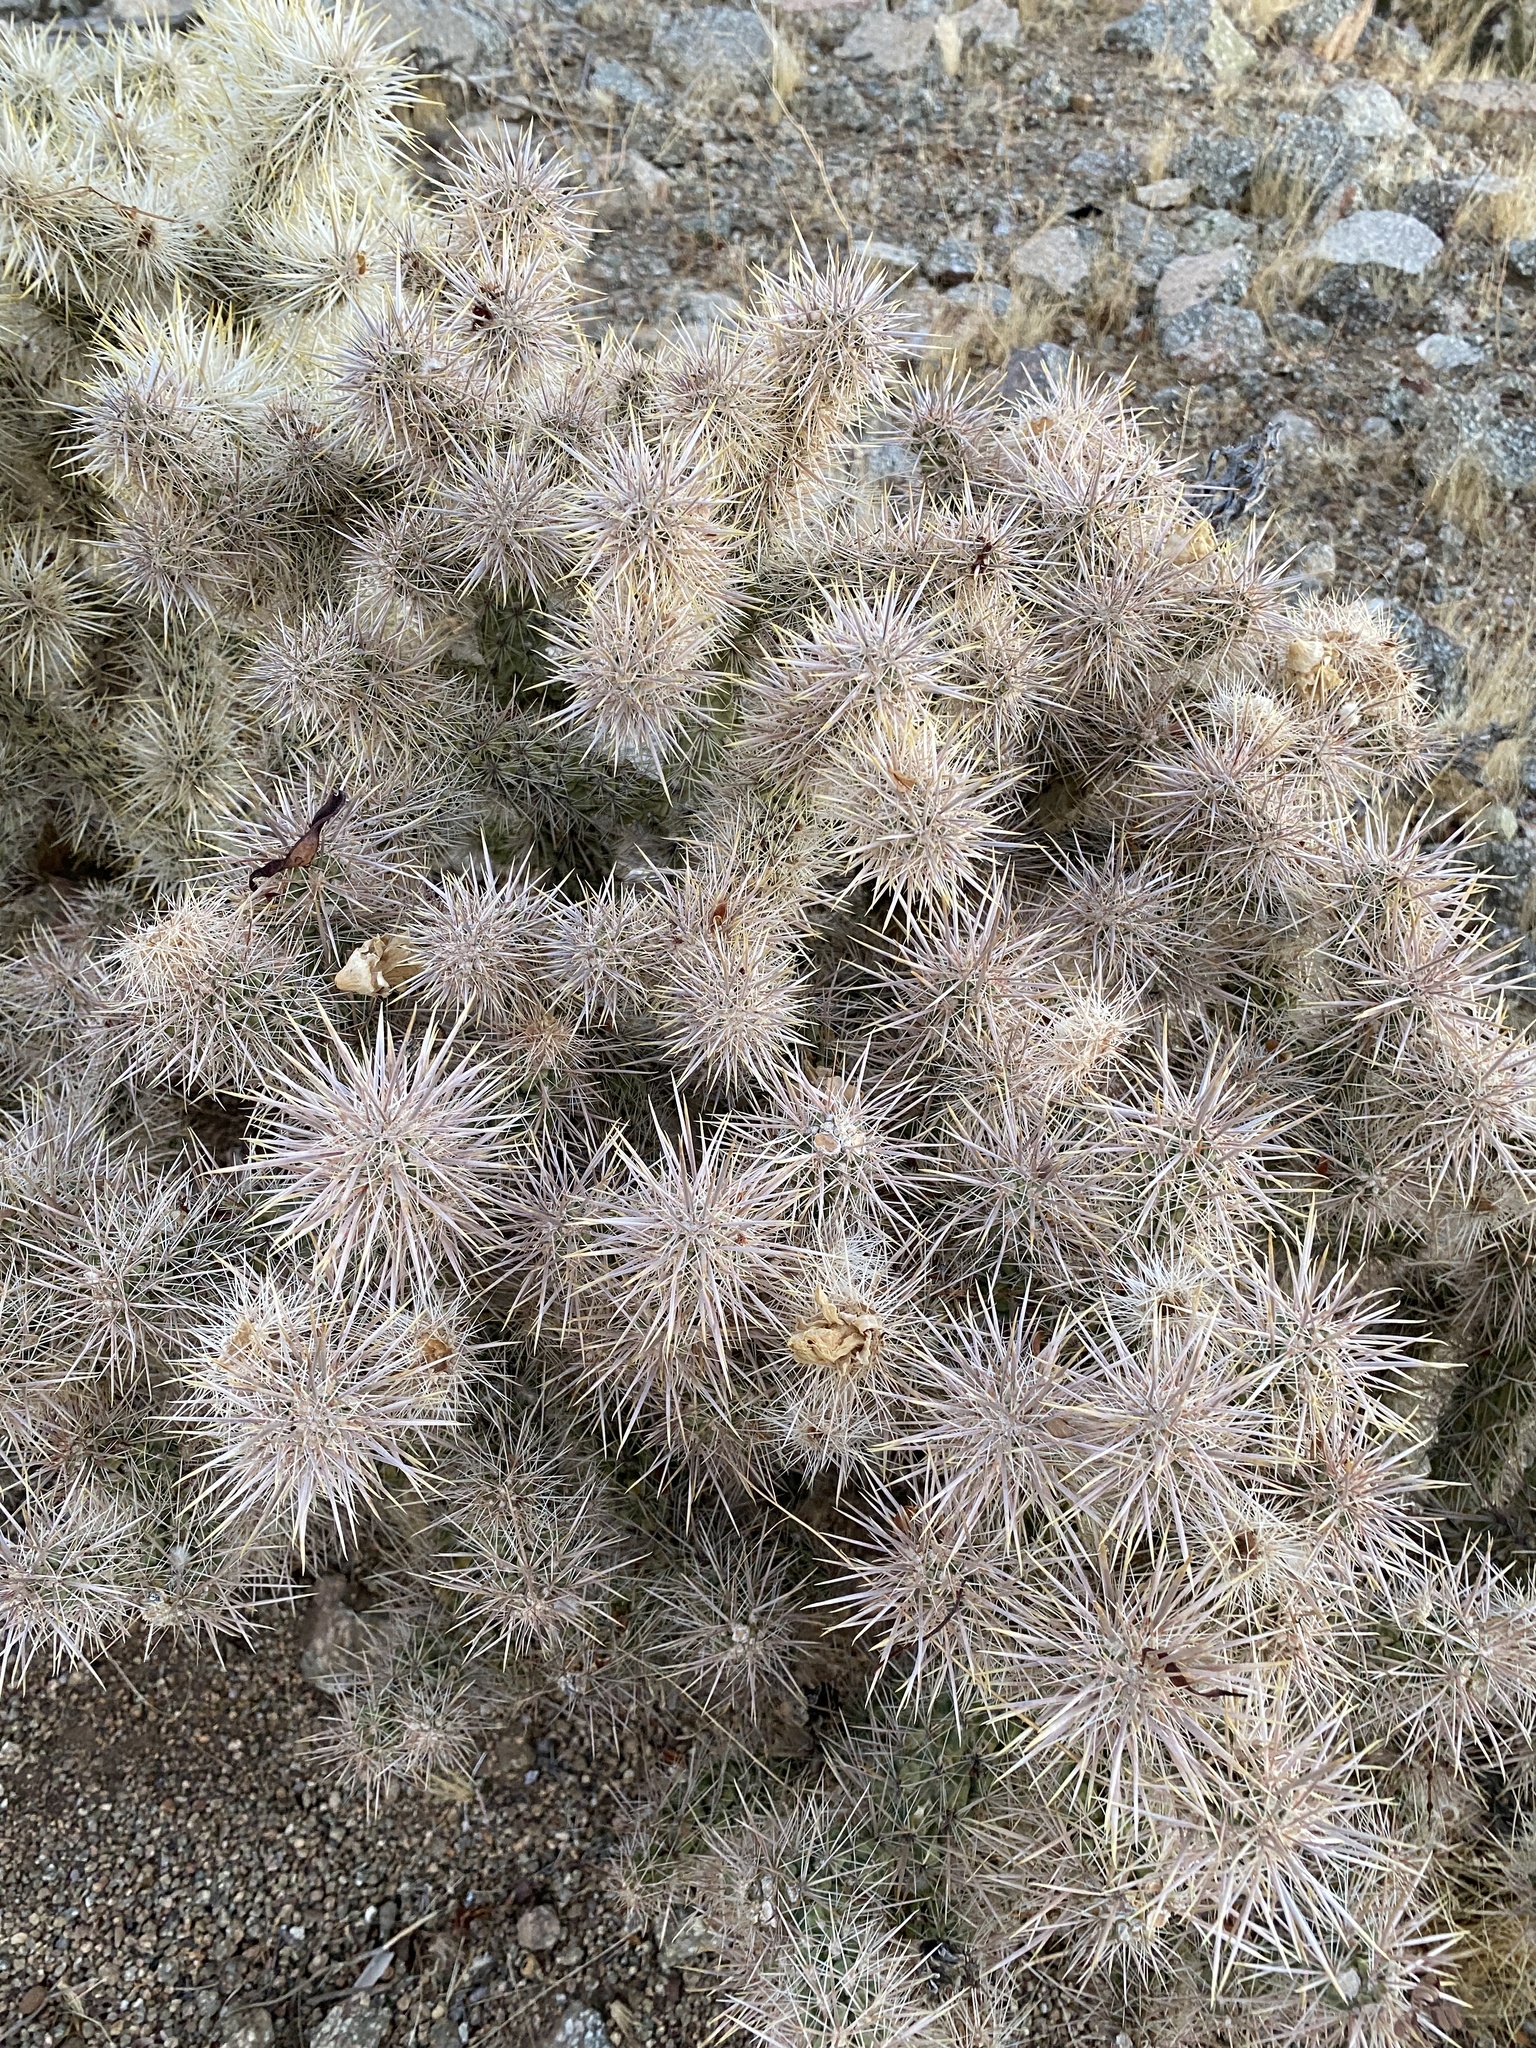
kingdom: Plantae
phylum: Tracheophyta
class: Magnoliopsida
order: Caryophyllales
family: Cactaceae
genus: Cylindropuntia
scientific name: Cylindropuntia echinocarpa
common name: Ground cholla
